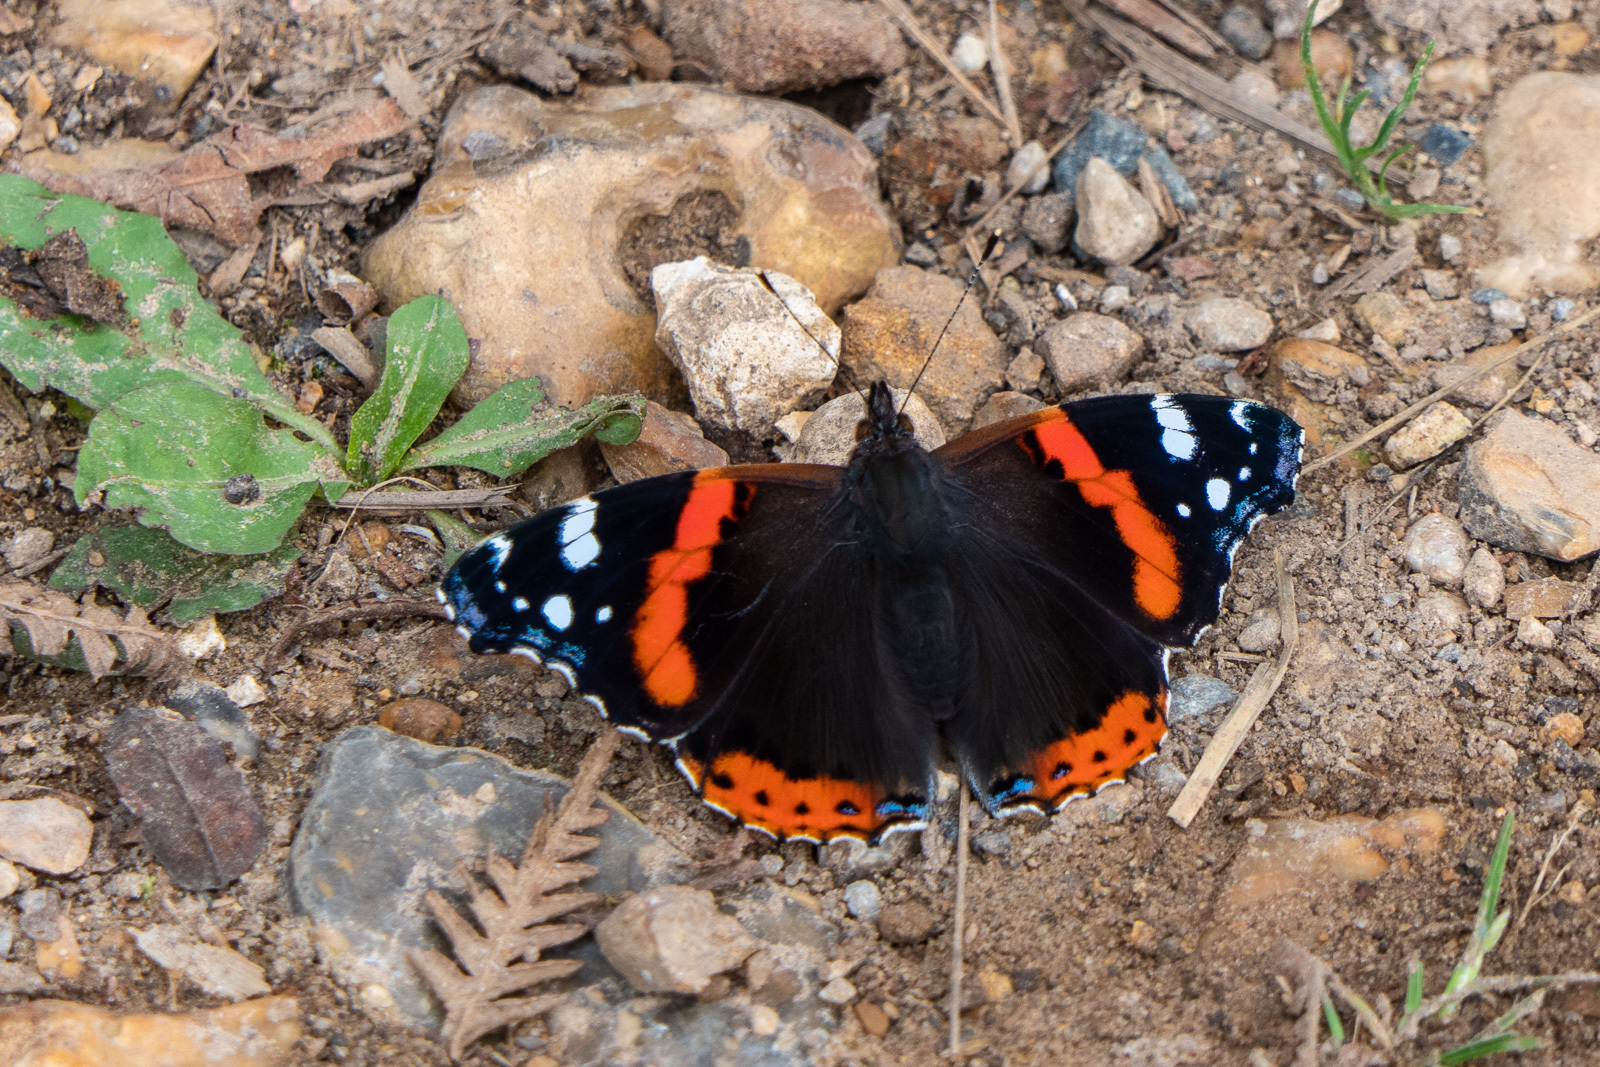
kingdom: Animalia
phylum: Arthropoda
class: Insecta
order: Lepidoptera
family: Nymphalidae
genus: Vanessa
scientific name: Vanessa atalanta
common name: Red admiral
